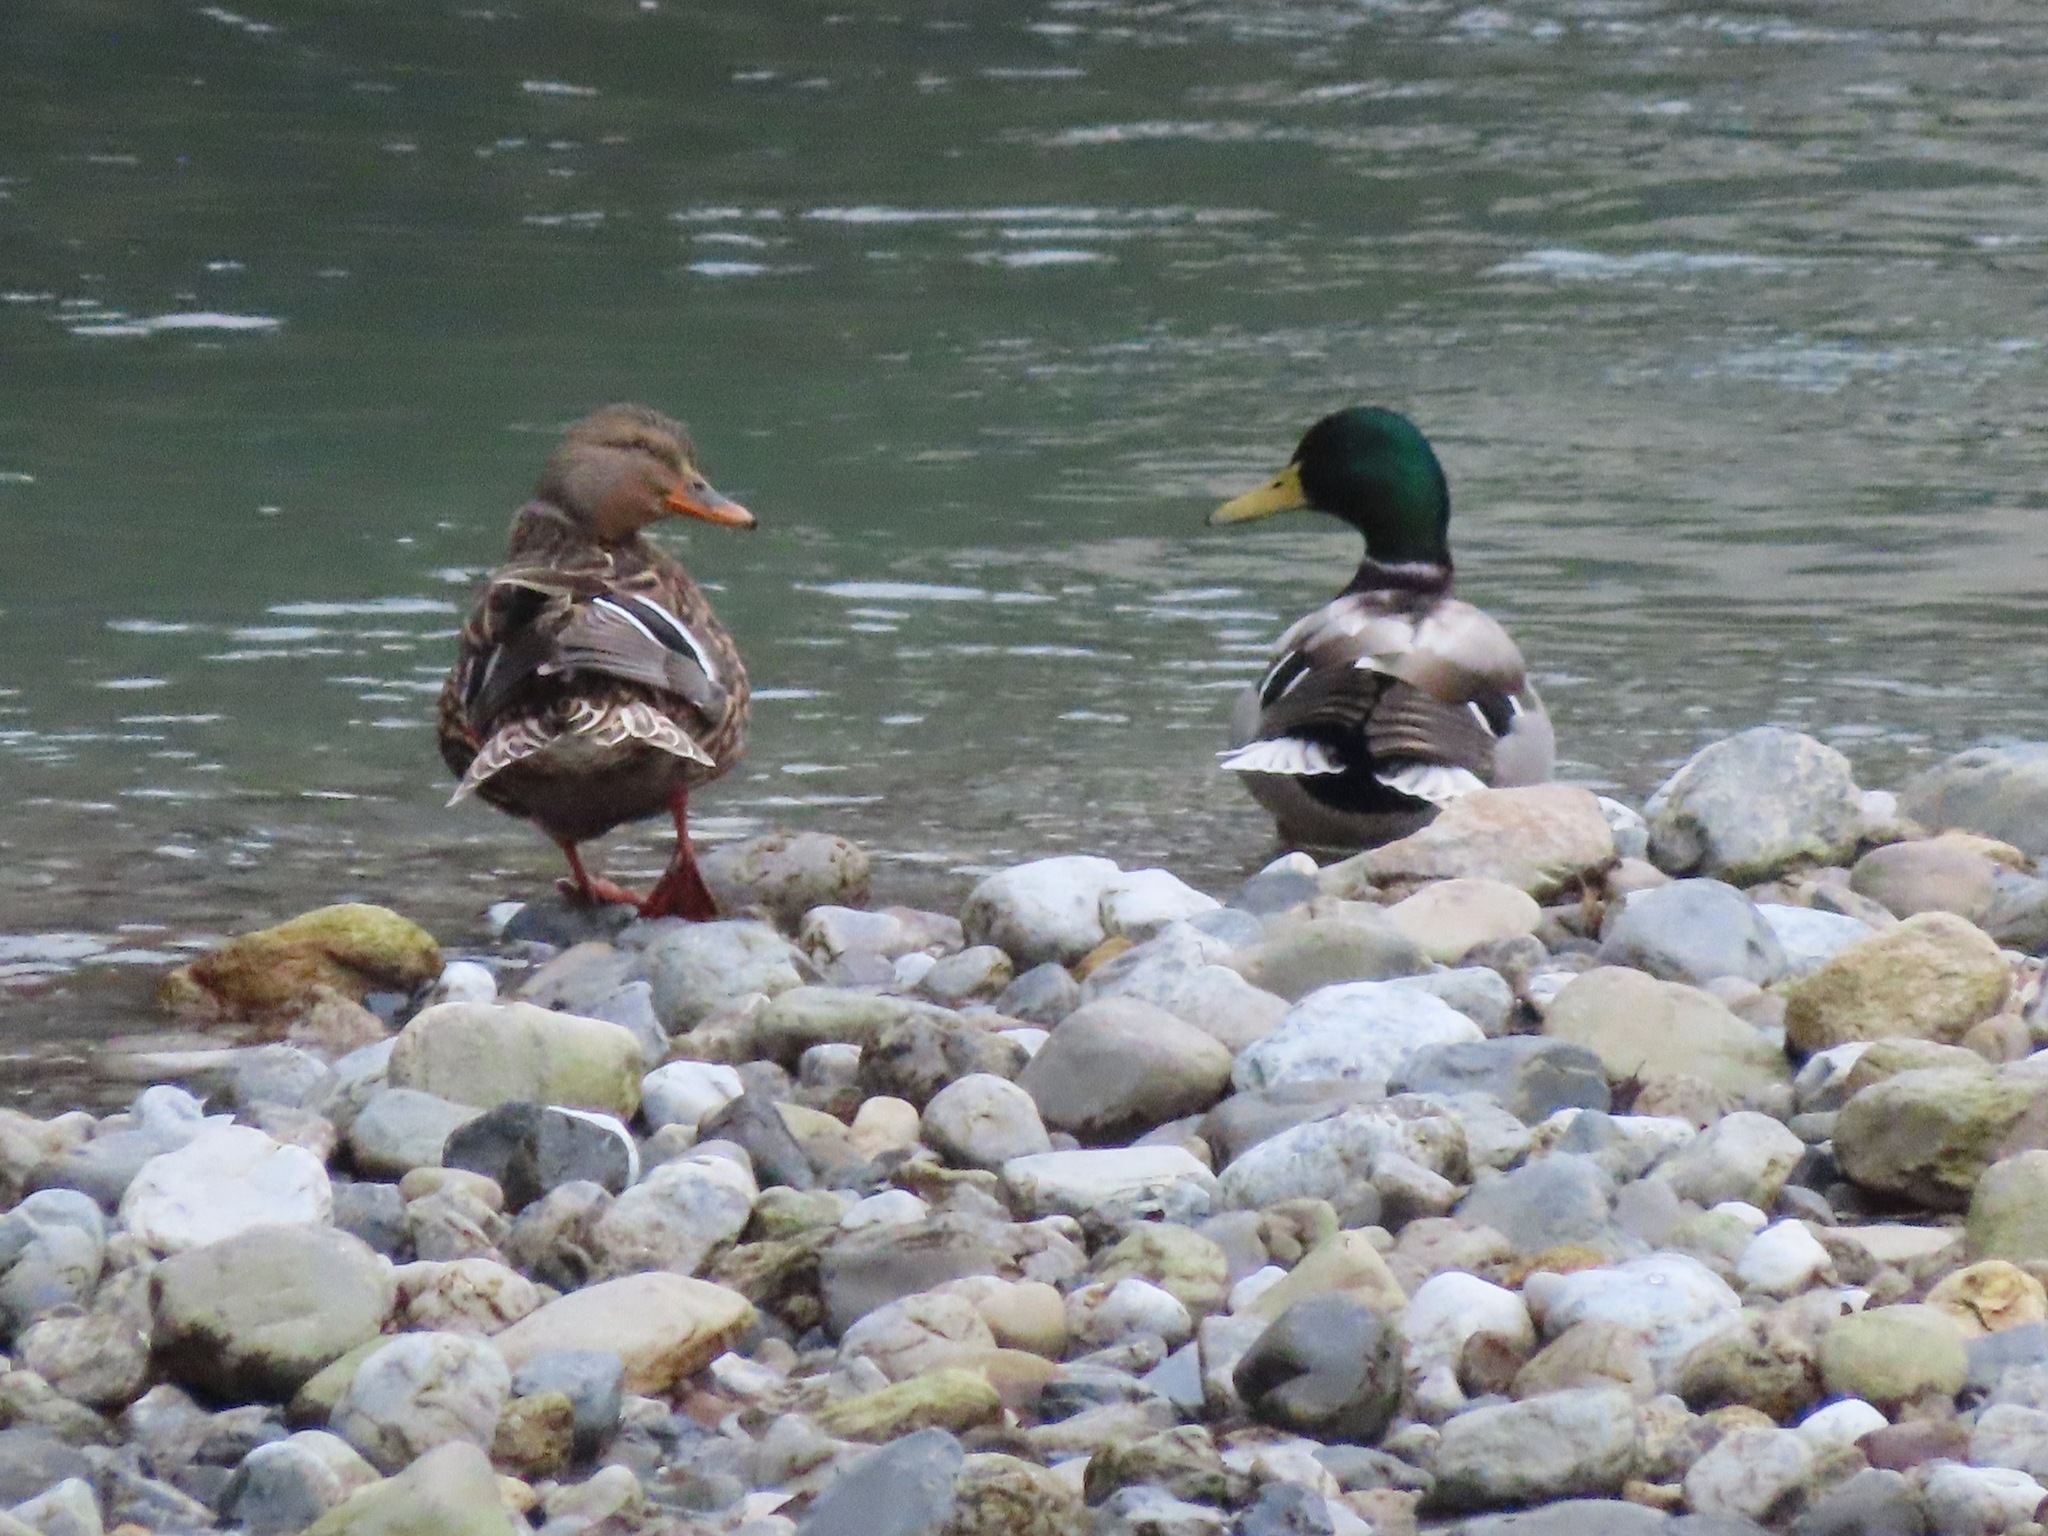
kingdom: Animalia
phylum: Chordata
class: Aves
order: Anseriformes
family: Anatidae
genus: Anas
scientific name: Anas platyrhynchos
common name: Mallard
